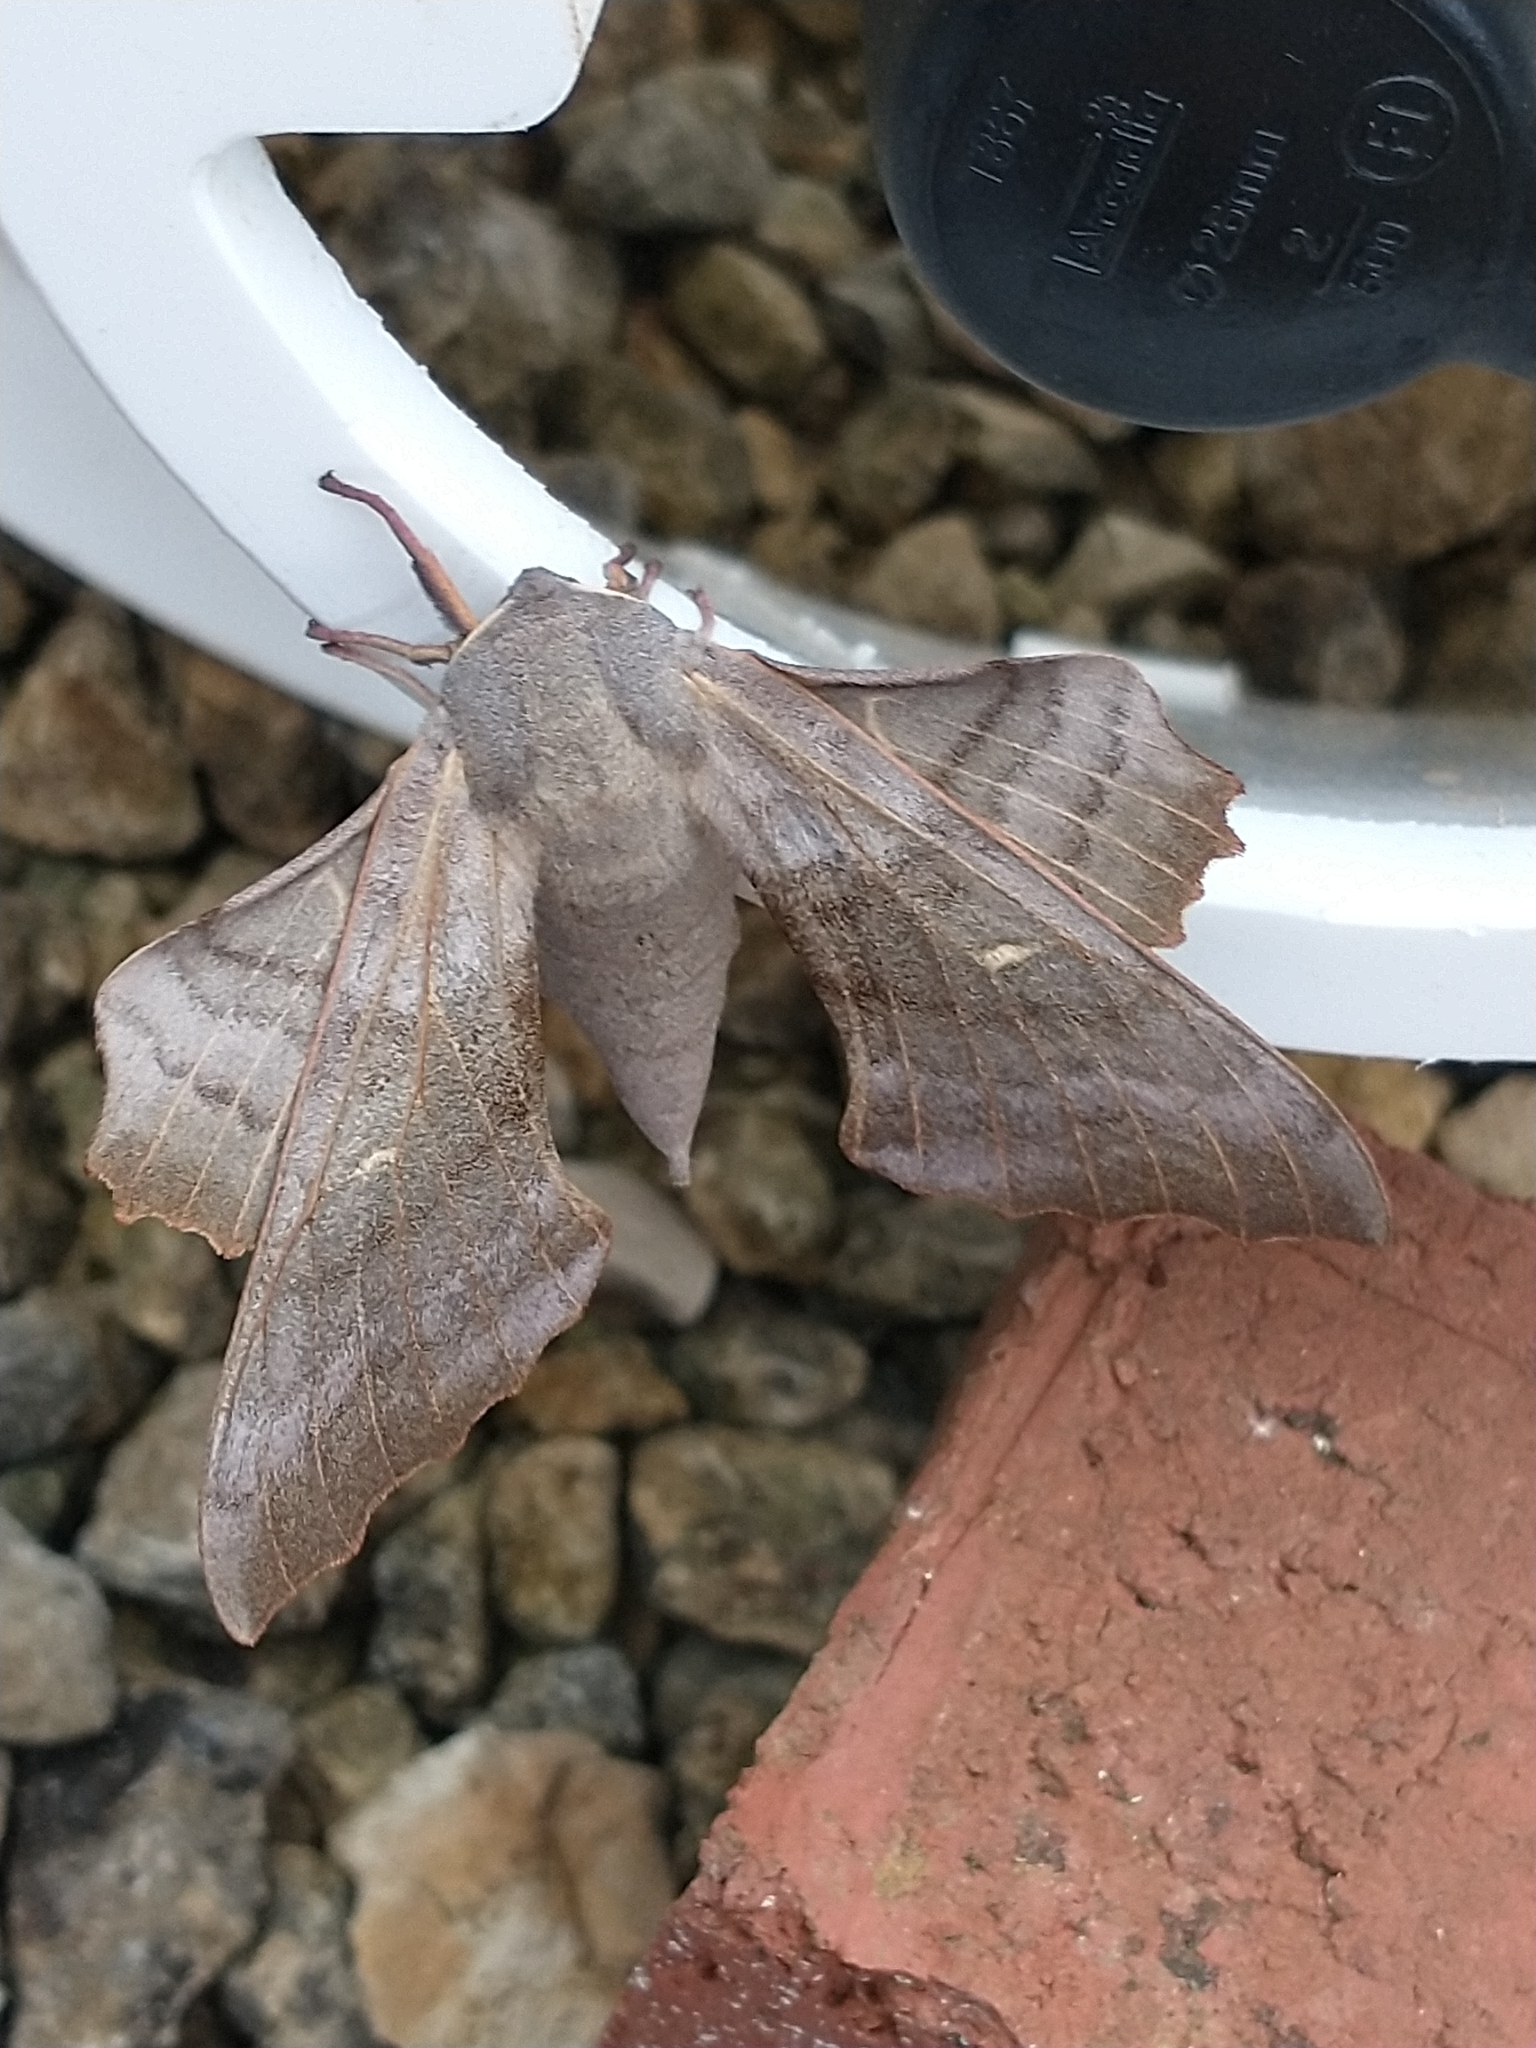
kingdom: Animalia
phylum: Arthropoda
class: Insecta
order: Lepidoptera
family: Sphingidae
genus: Laothoe
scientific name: Laothoe populi
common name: Poplar hawk-moth
